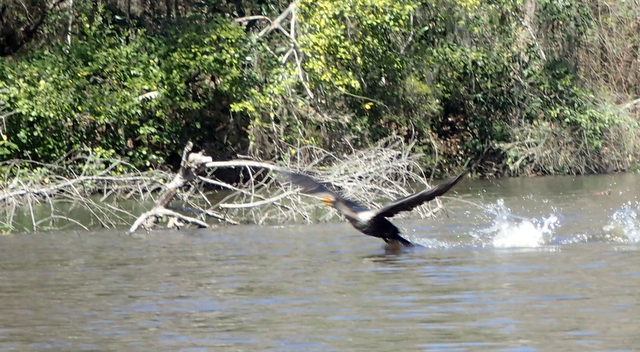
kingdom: Animalia
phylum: Chordata
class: Aves
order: Suliformes
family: Phalacrocoracidae
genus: Phalacrocorax
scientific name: Phalacrocorax auritus
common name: Double-crested cormorant
